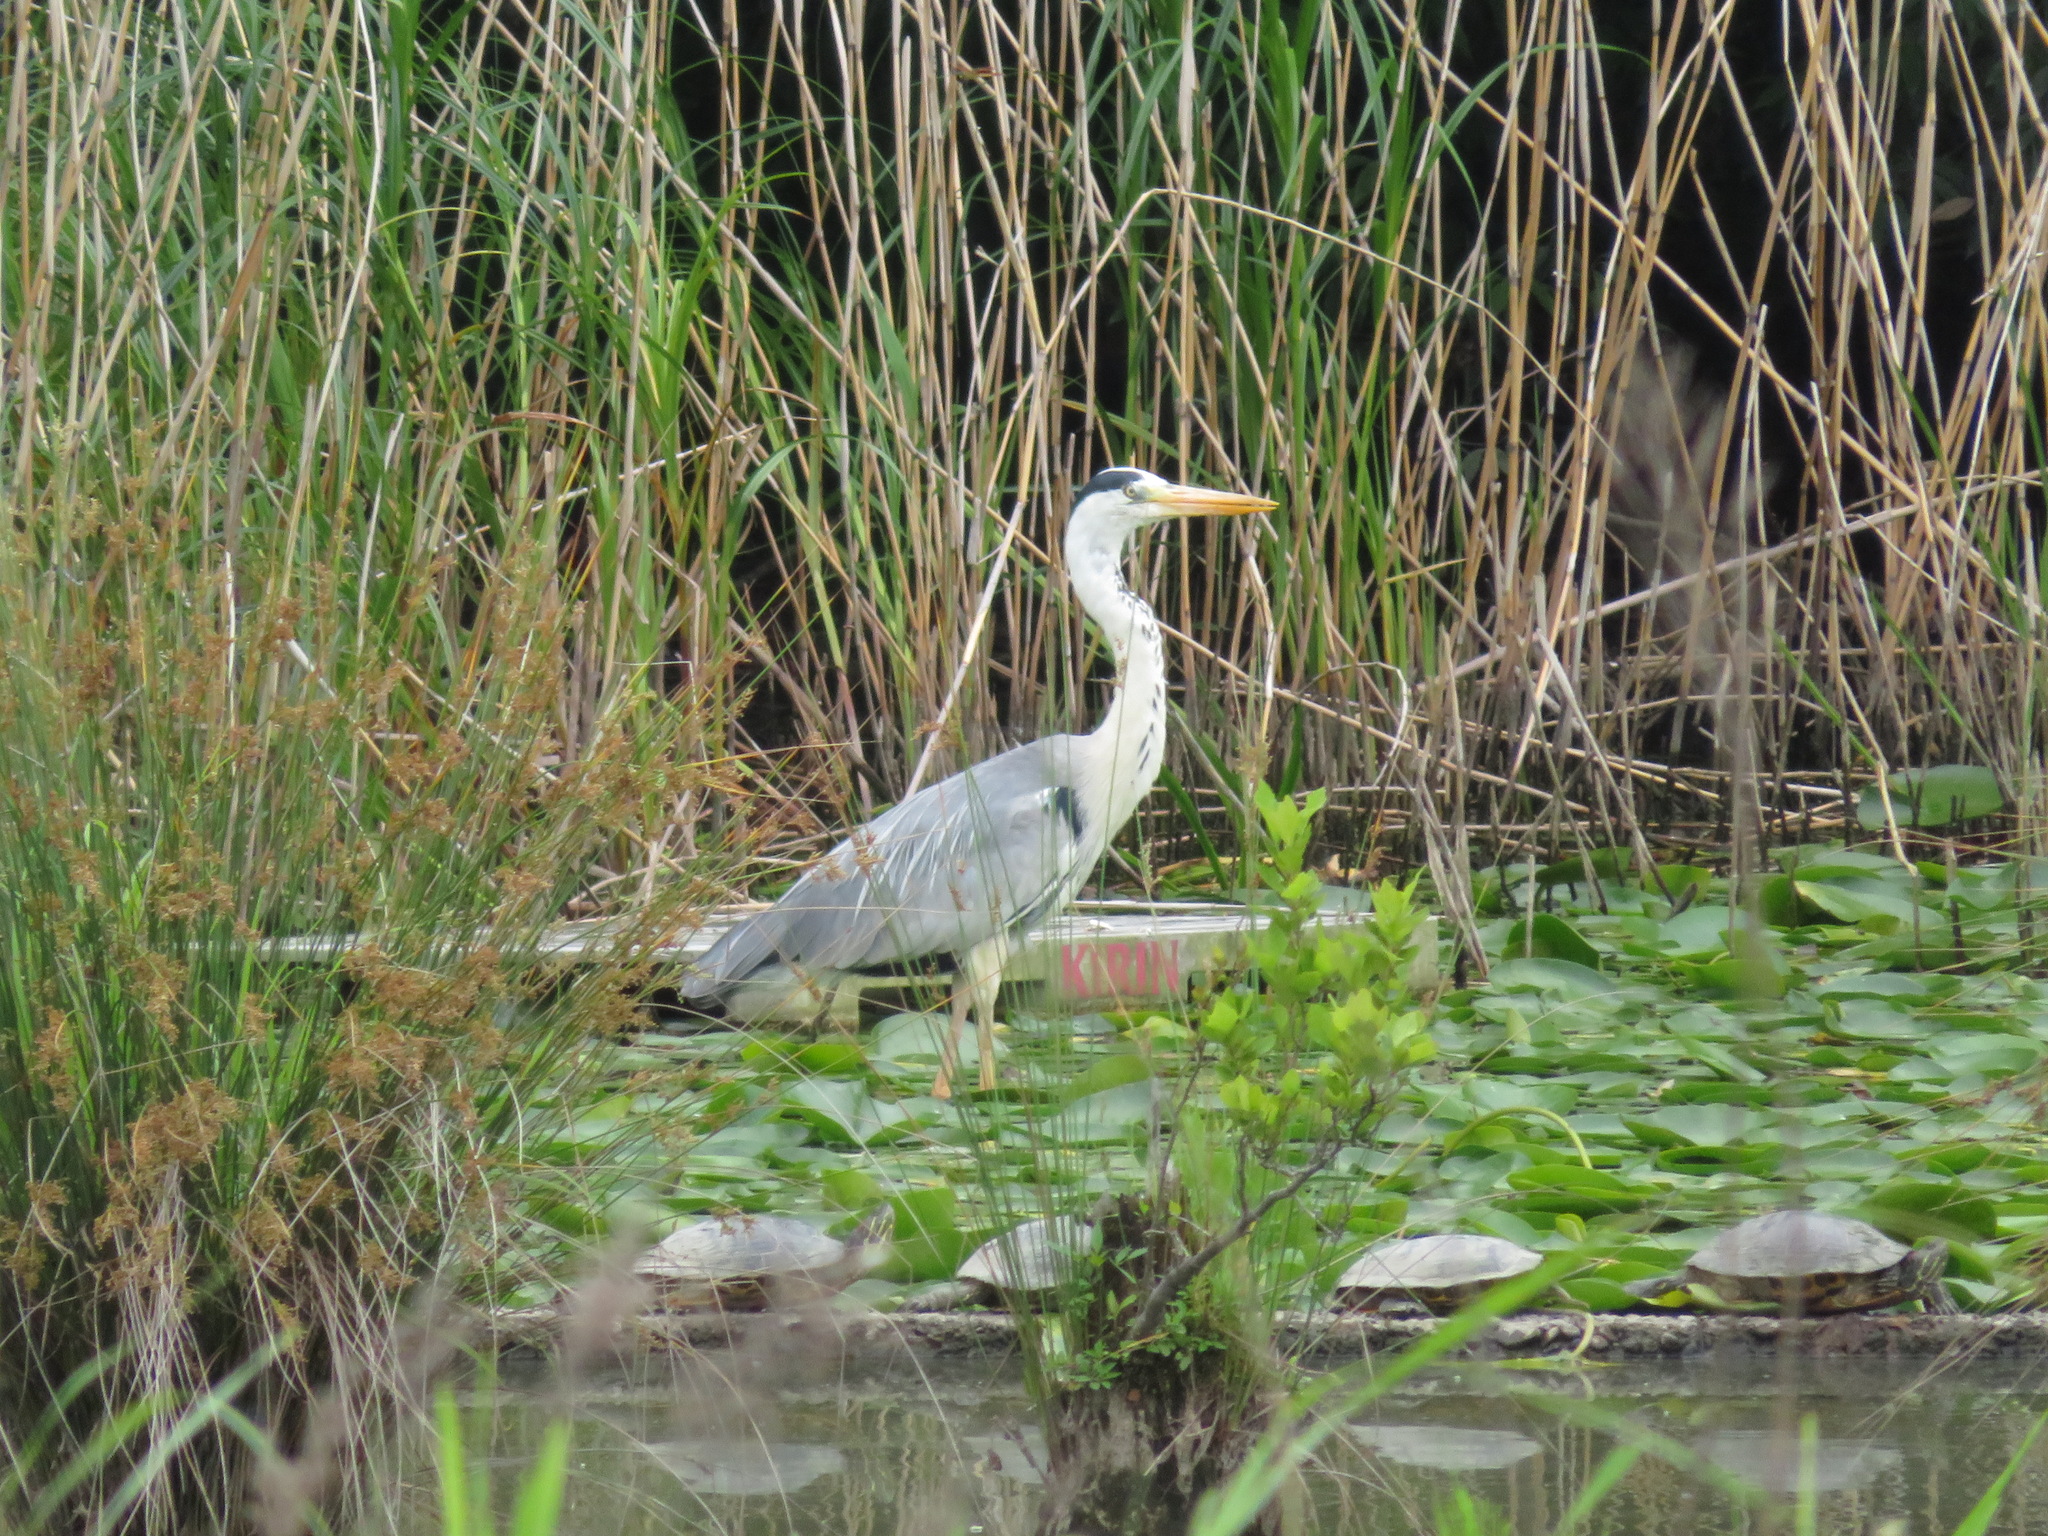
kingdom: Animalia
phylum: Chordata
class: Aves
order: Pelecaniformes
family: Ardeidae
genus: Ardea
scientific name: Ardea cinerea
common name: Grey heron
